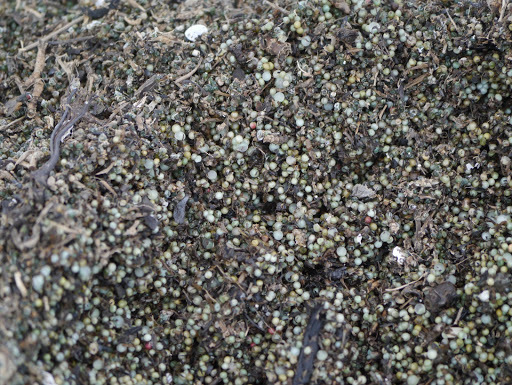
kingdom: Animalia
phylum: Arthropoda
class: Merostomata
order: Xiphosurida
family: Limulidae
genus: Limulus
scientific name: Limulus polyphemus
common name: Horseshoe crab
